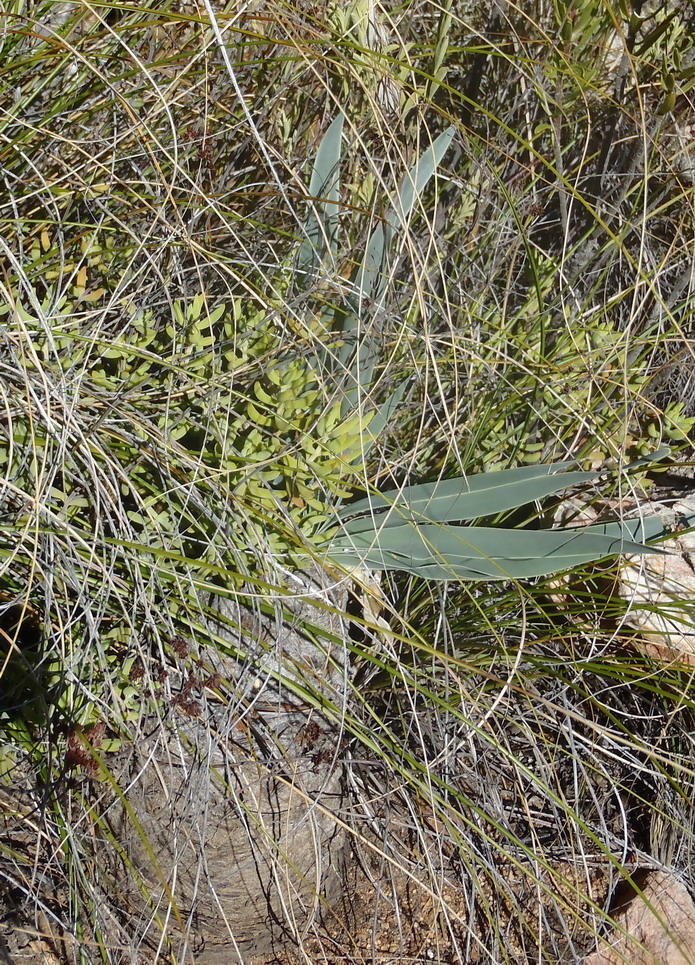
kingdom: Plantae
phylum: Tracheophyta
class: Liliopsida
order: Asparagales
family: Amaryllidaceae
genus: Boophone
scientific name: Boophone disticha
